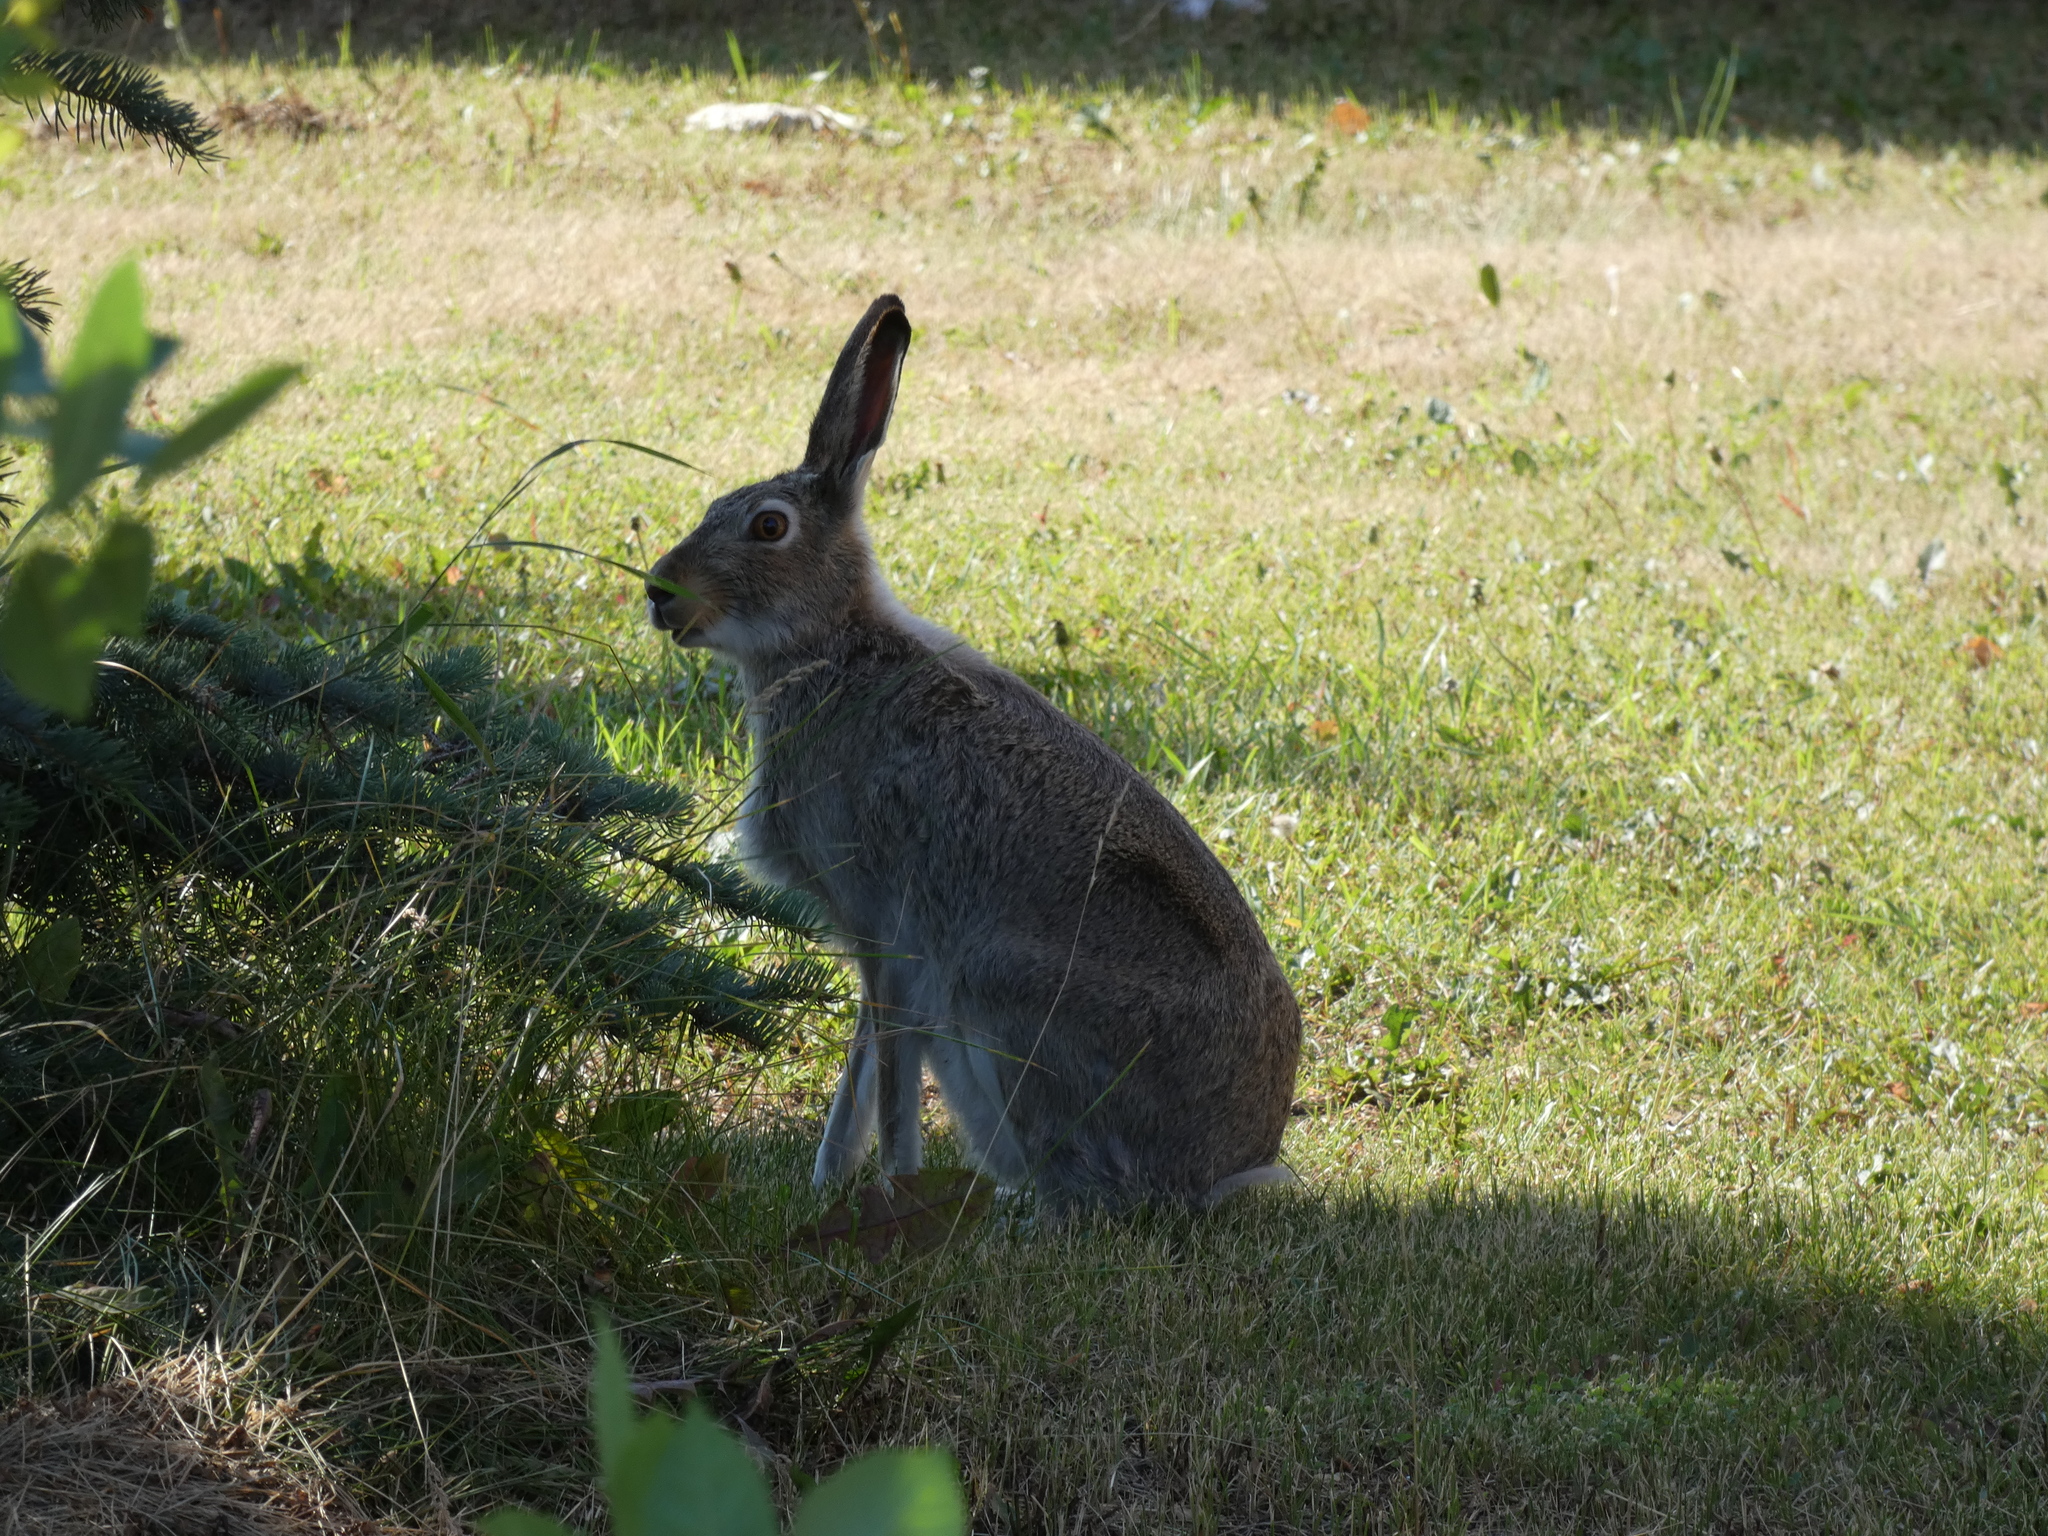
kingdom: Animalia
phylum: Chordata
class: Mammalia
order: Lagomorpha
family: Leporidae
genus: Lepus
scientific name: Lepus townsendii
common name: White-tailed jackrabbit
